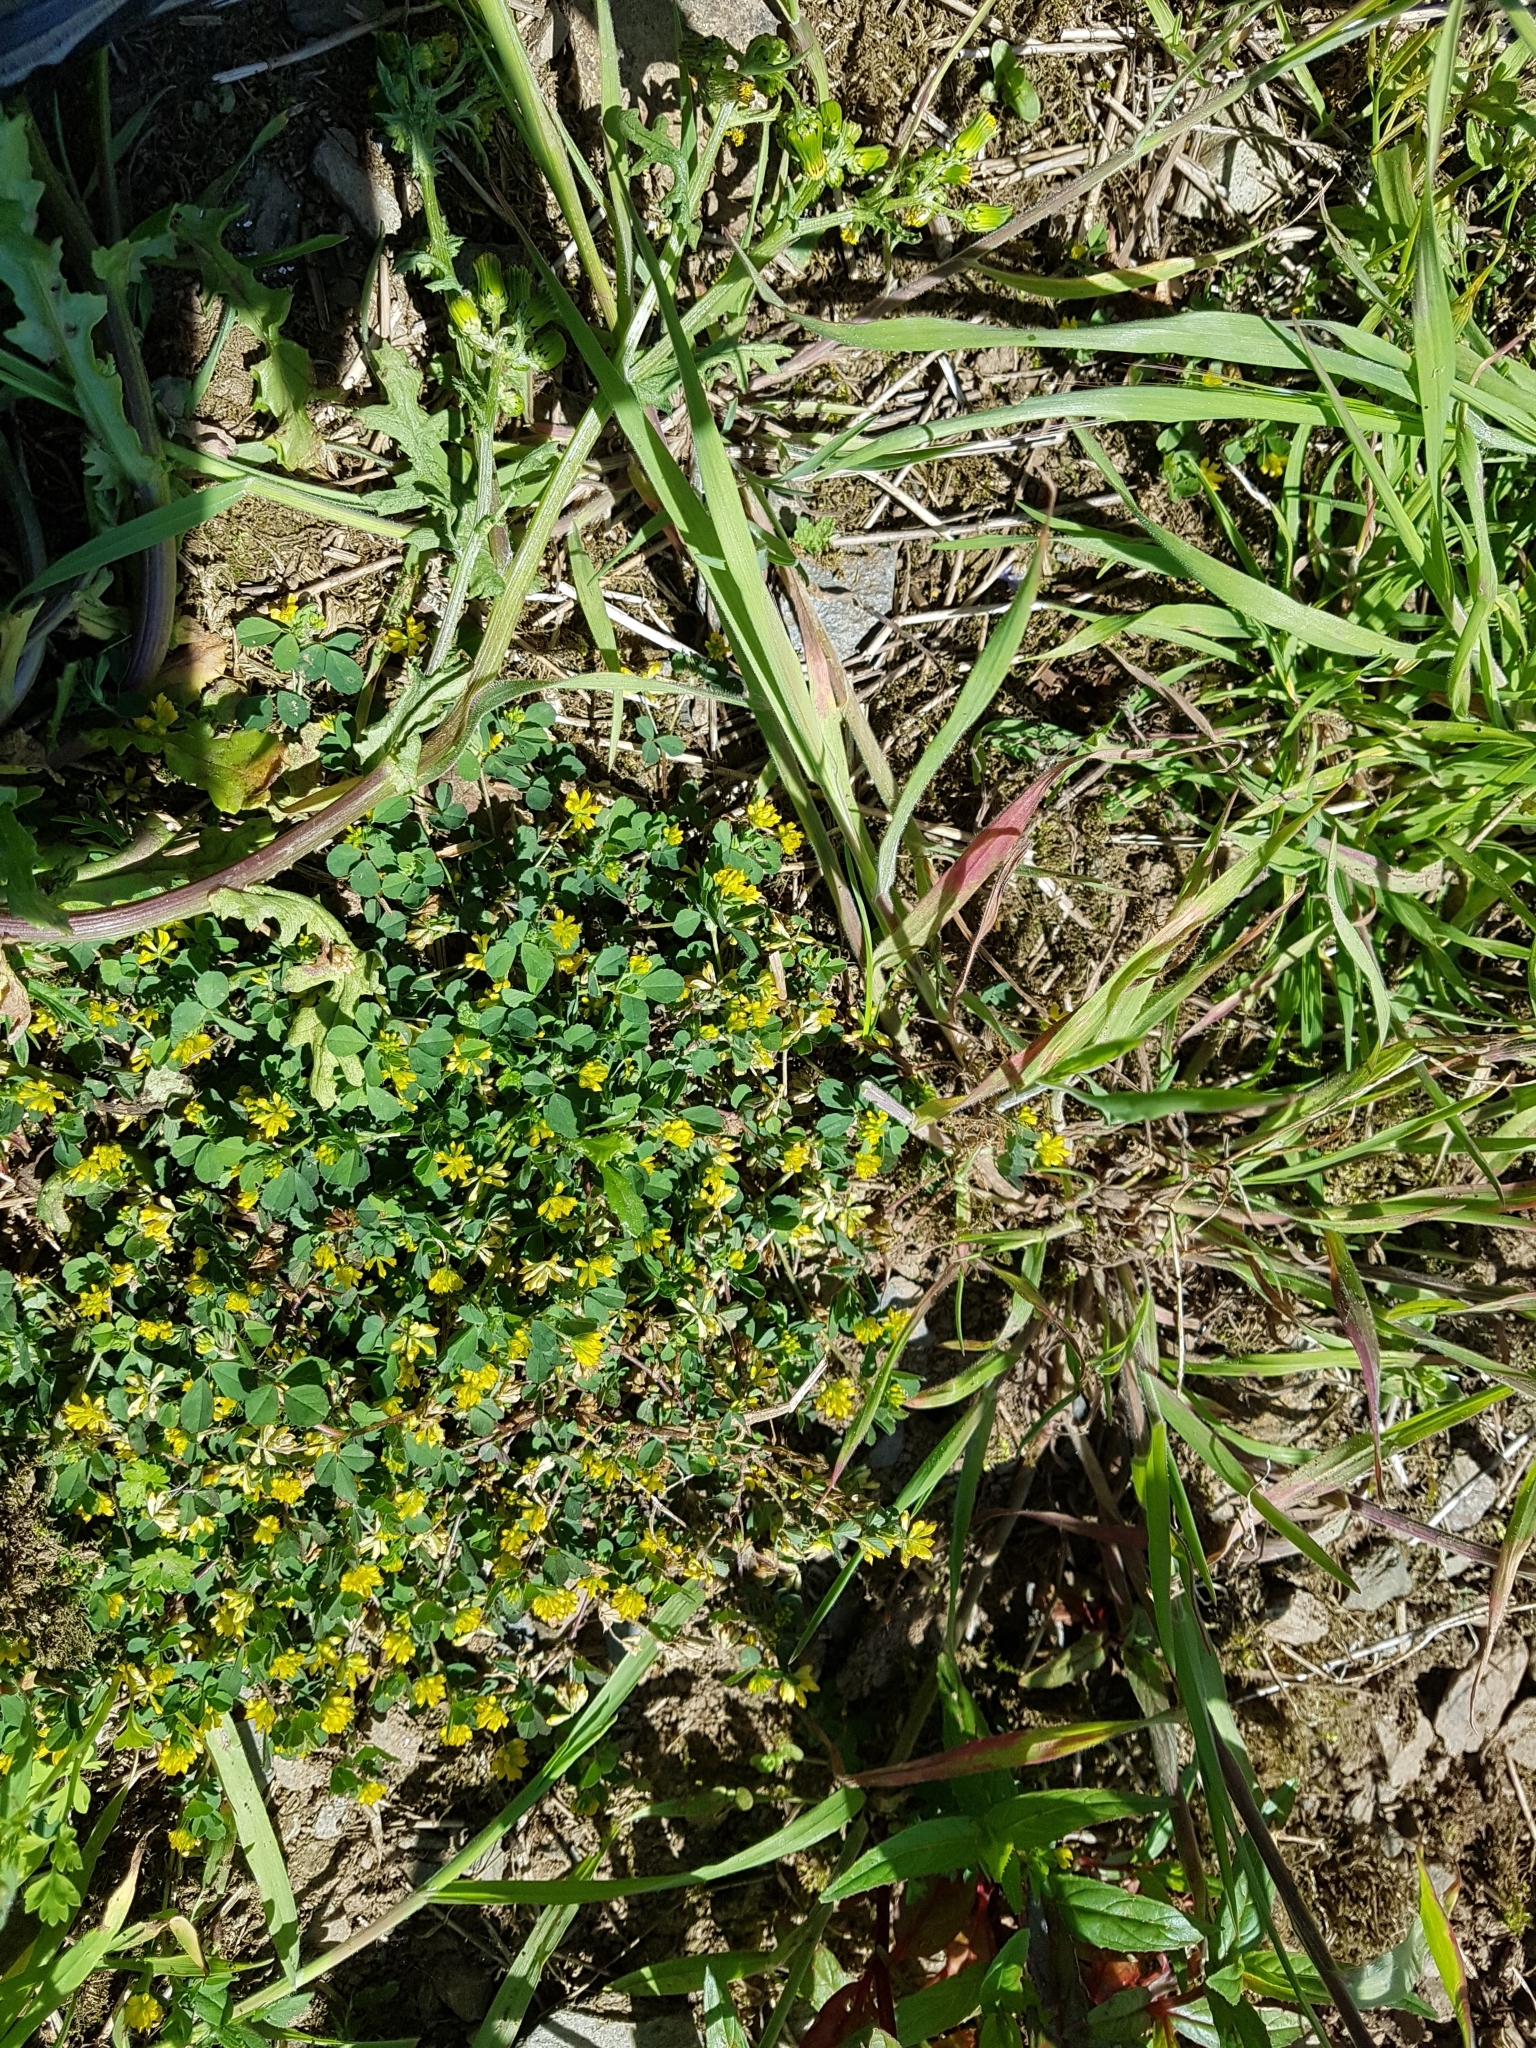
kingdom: Plantae
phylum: Tracheophyta
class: Magnoliopsida
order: Fabales
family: Fabaceae
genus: Trifolium
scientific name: Trifolium dubium
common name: Suckling clover
